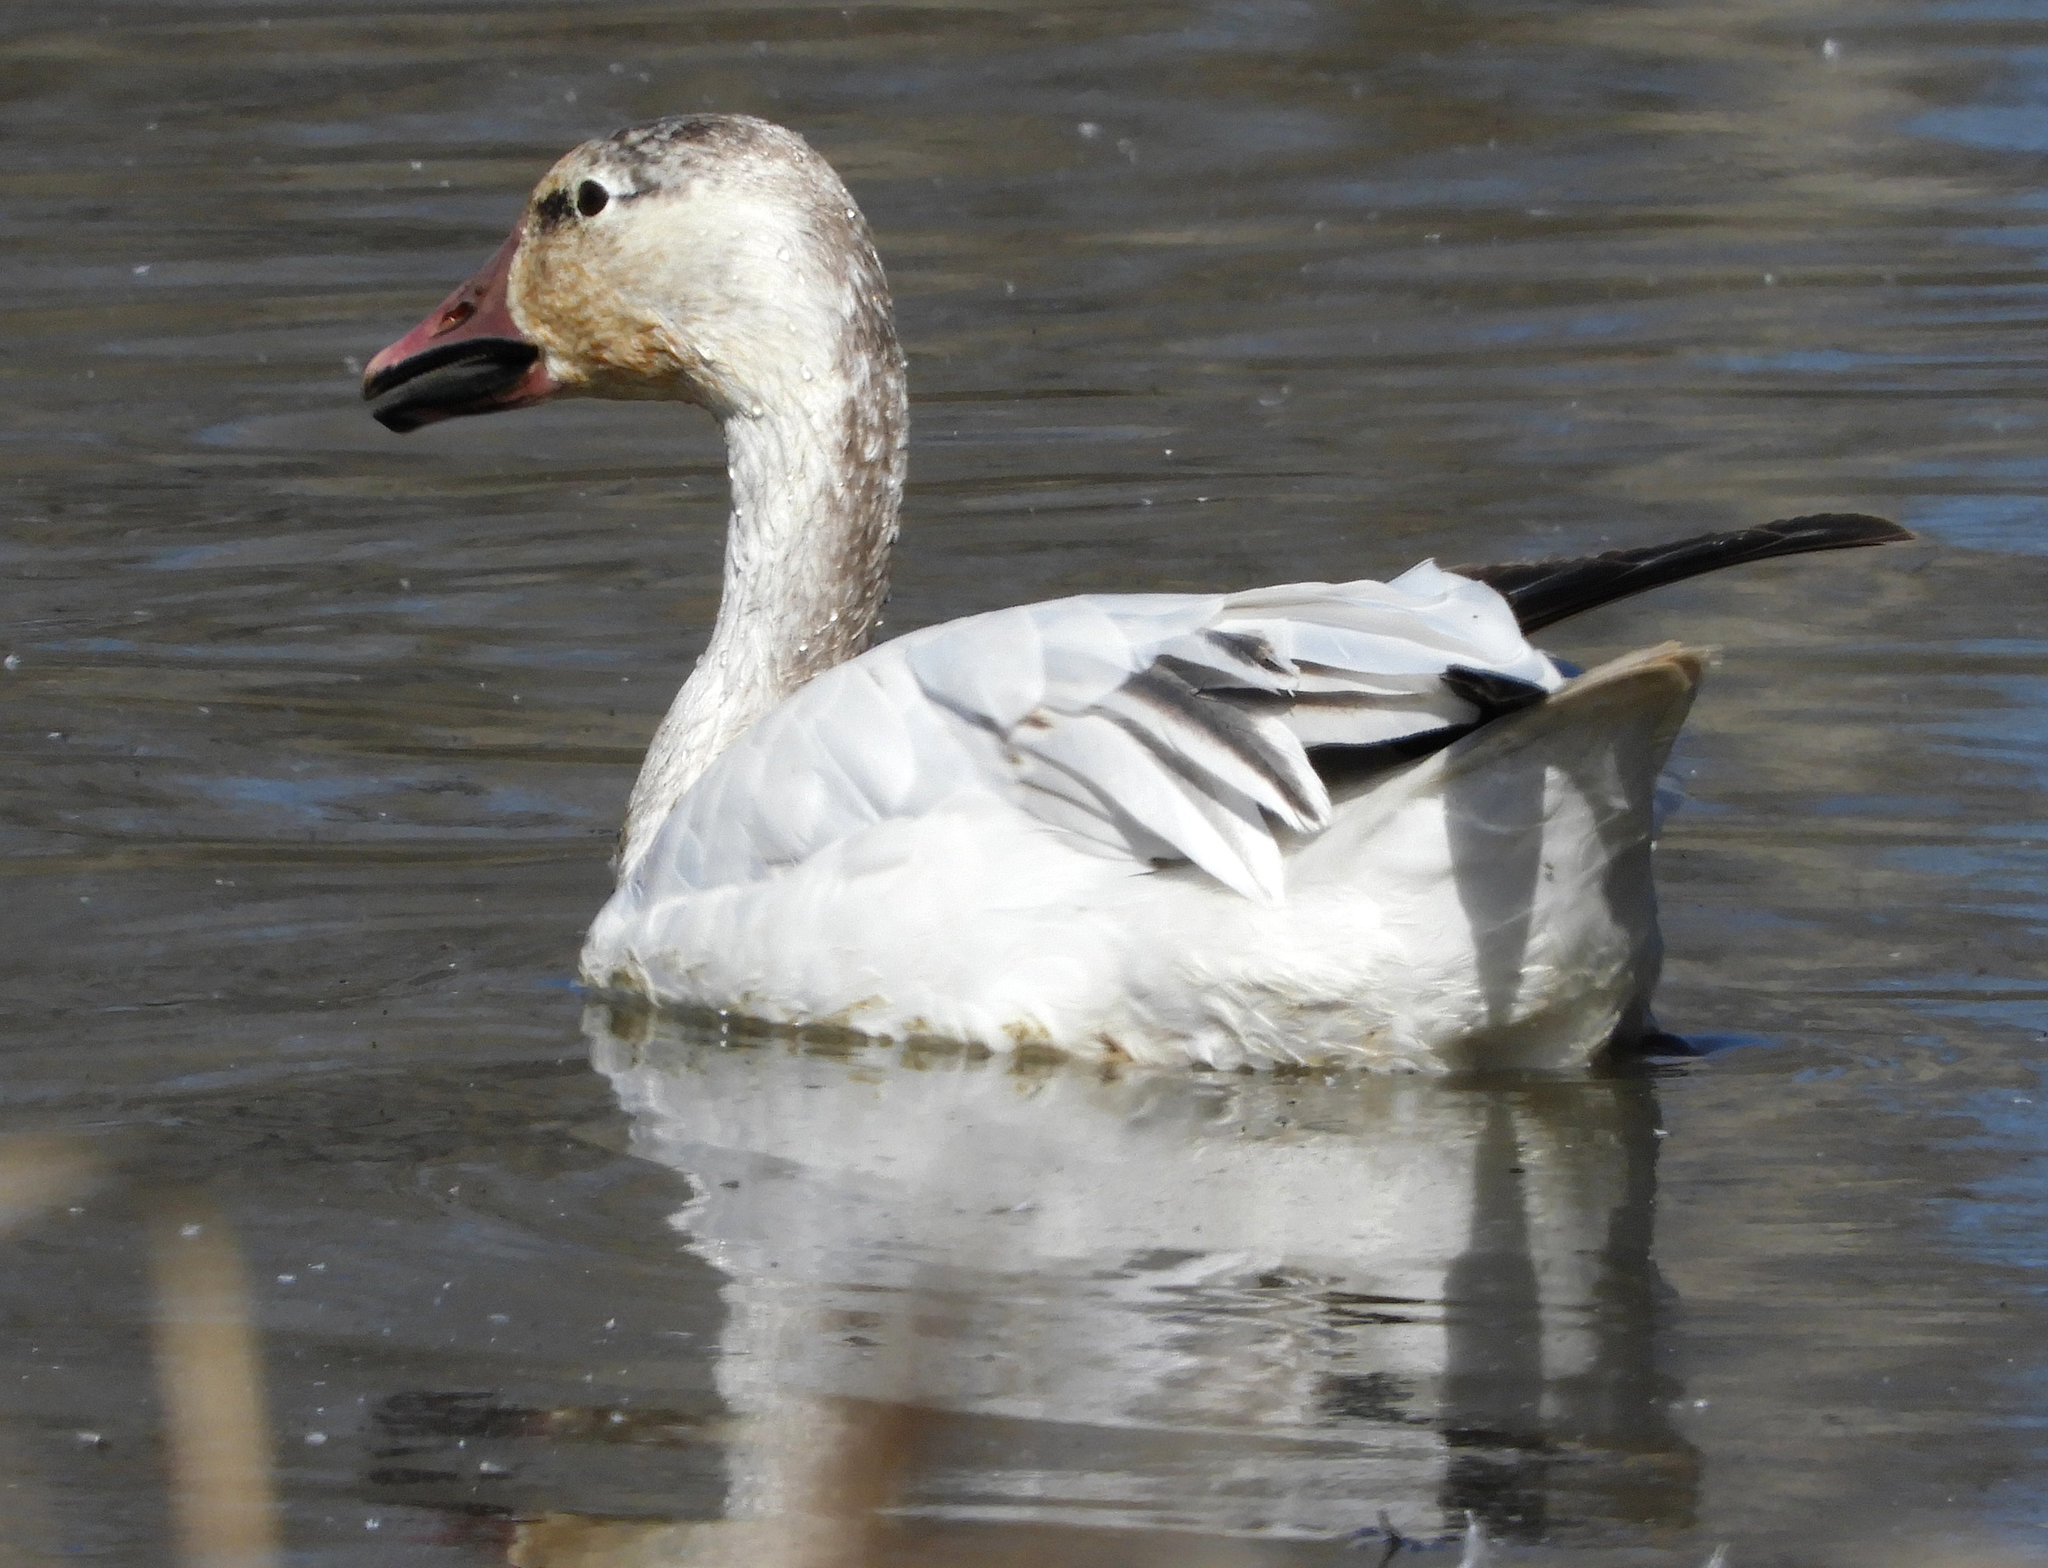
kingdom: Animalia
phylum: Chordata
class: Aves
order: Anseriformes
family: Anatidae
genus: Anser
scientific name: Anser caerulescens
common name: Snow goose
